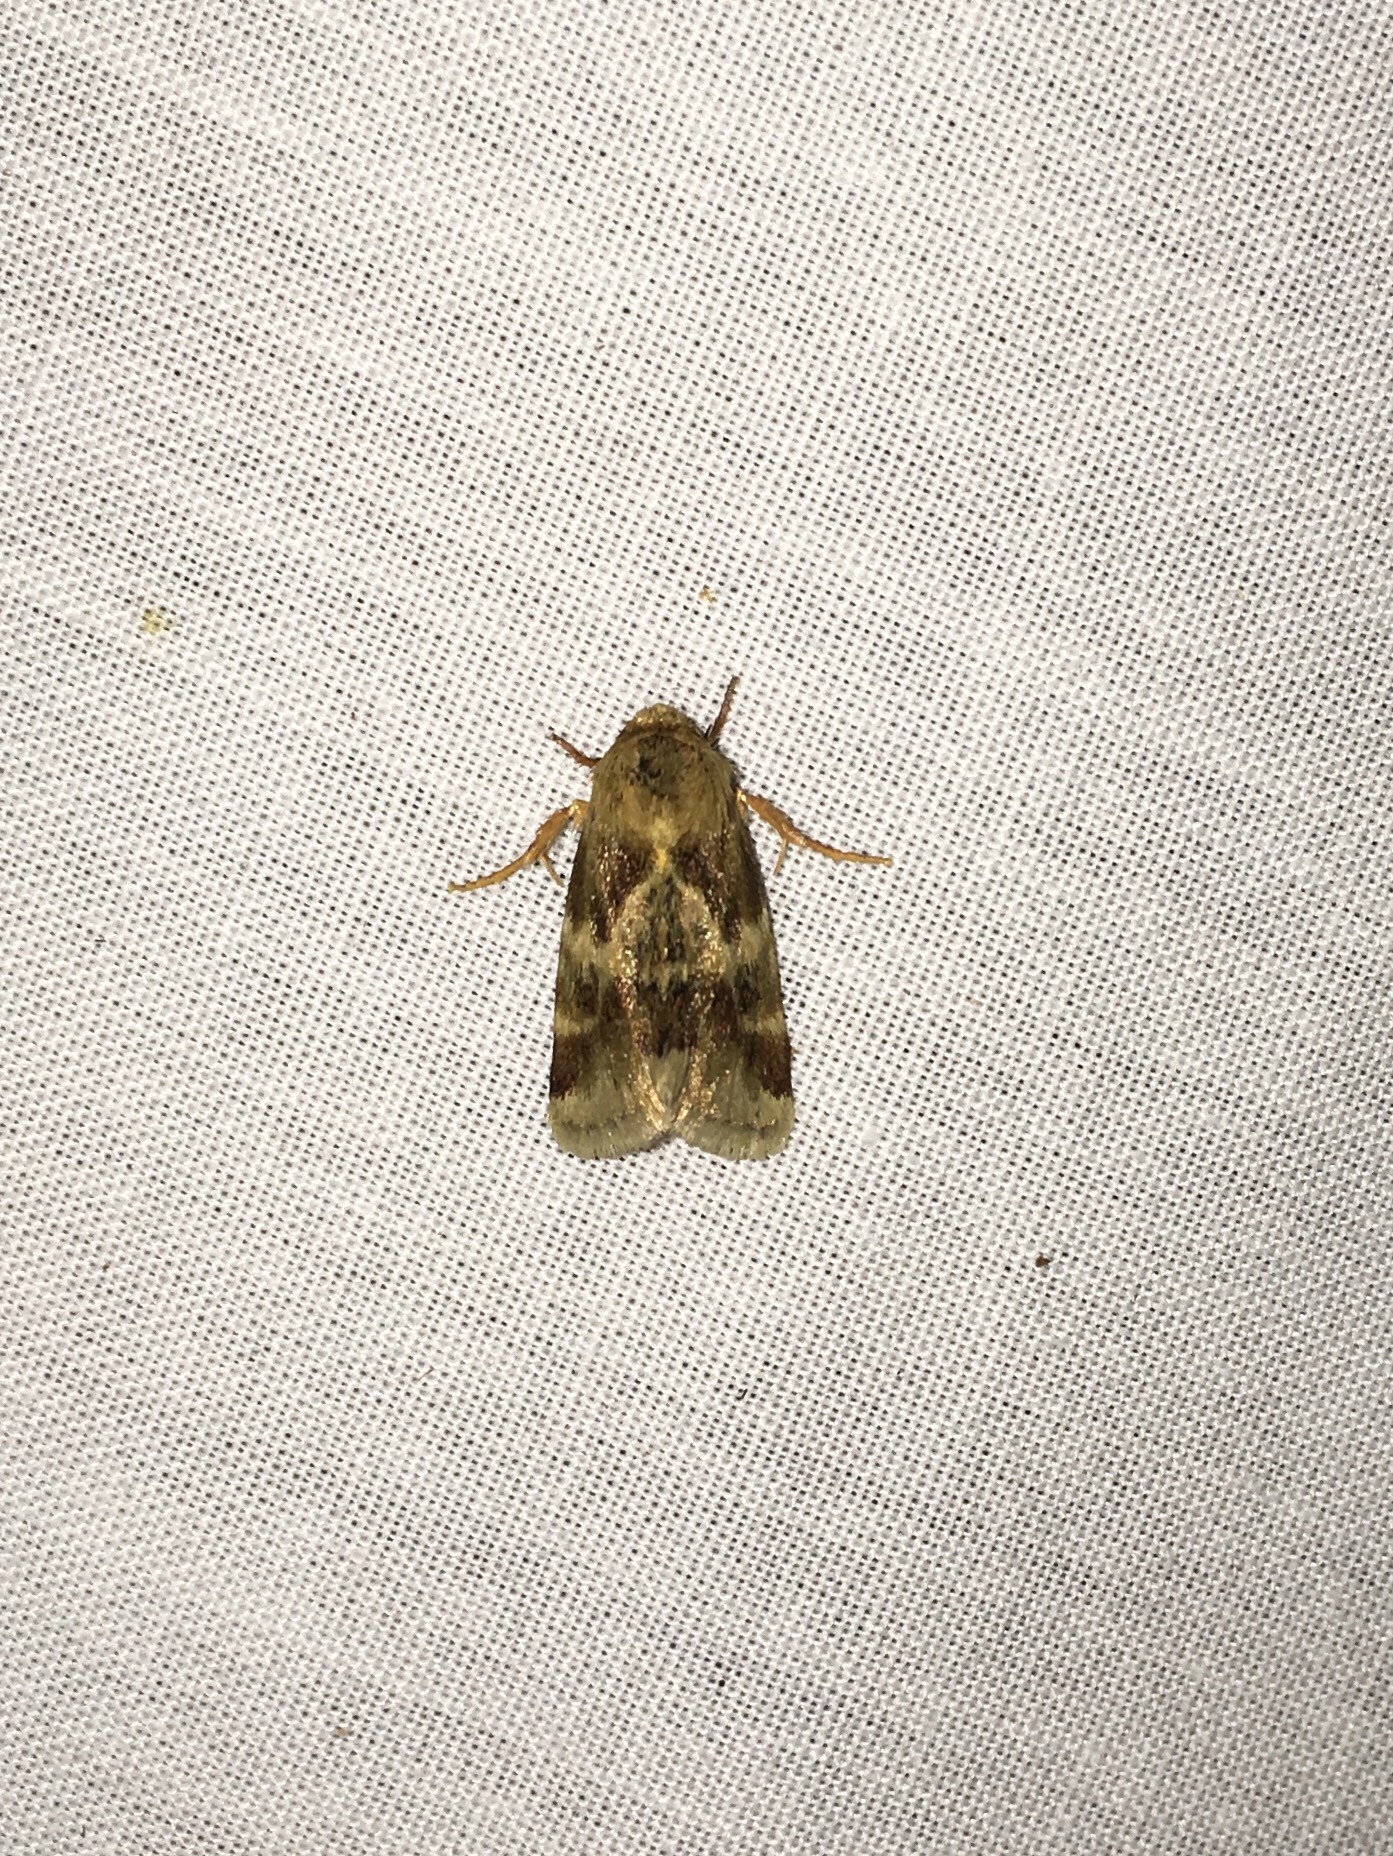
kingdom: Animalia
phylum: Arthropoda
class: Insecta
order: Lepidoptera
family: Noctuidae
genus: Schinia
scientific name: Schinia lynx
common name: Lynx flower moth
